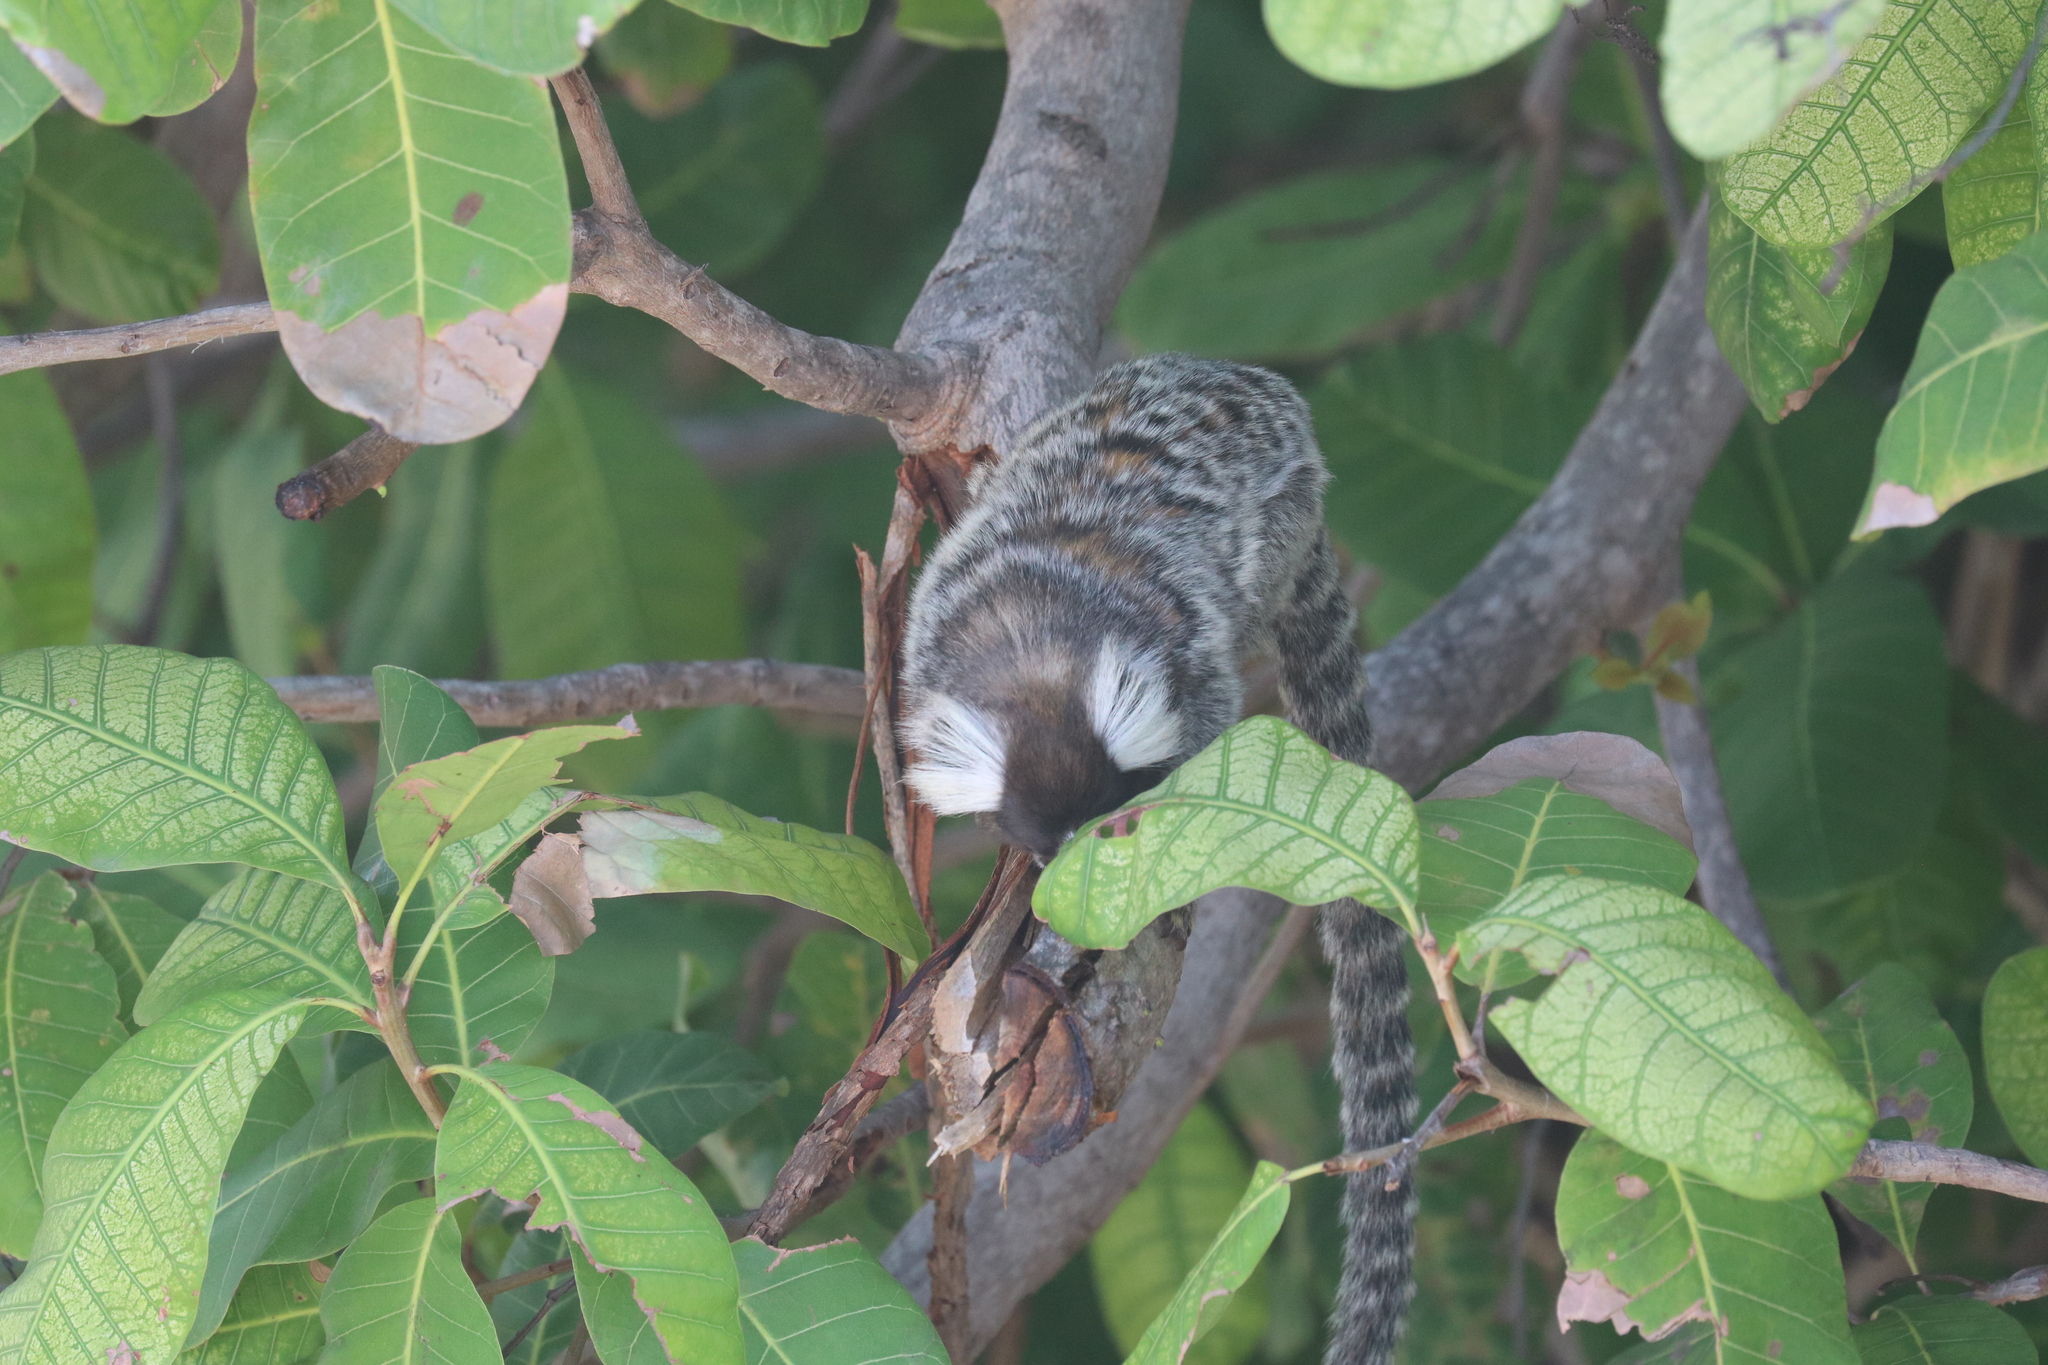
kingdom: Animalia
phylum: Chordata
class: Mammalia
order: Primates
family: Callitrichidae
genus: Callithrix
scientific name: Callithrix jacchus
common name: Common marmoset
